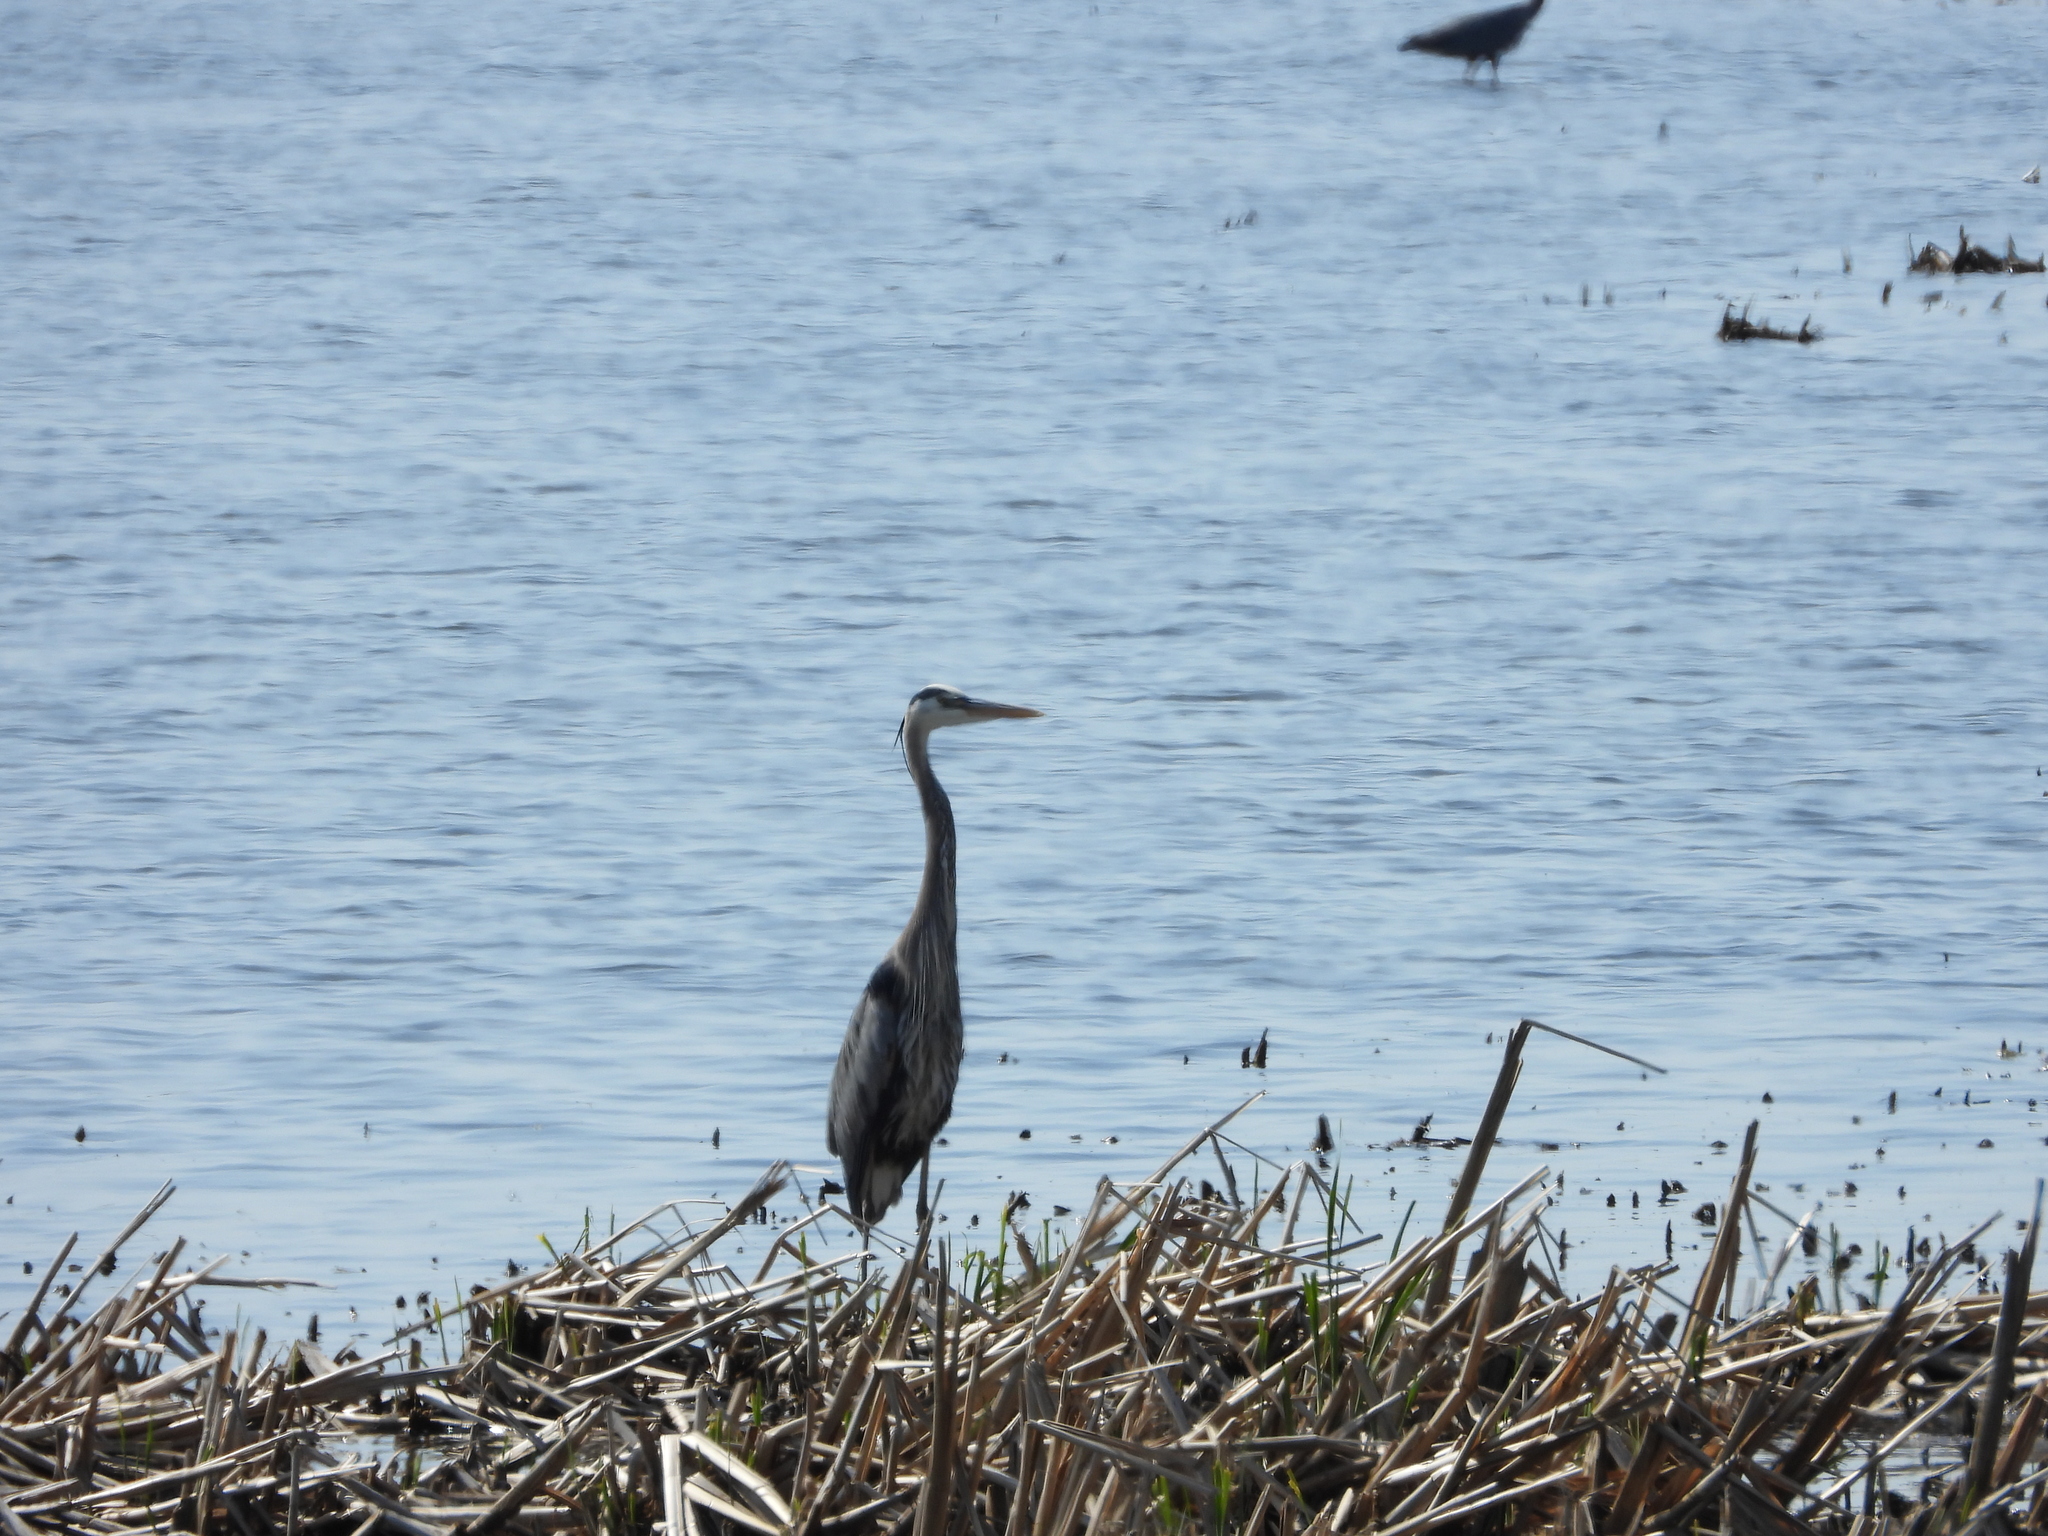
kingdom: Animalia
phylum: Chordata
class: Aves
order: Pelecaniformes
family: Ardeidae
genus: Ardea
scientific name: Ardea herodias
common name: Great blue heron
